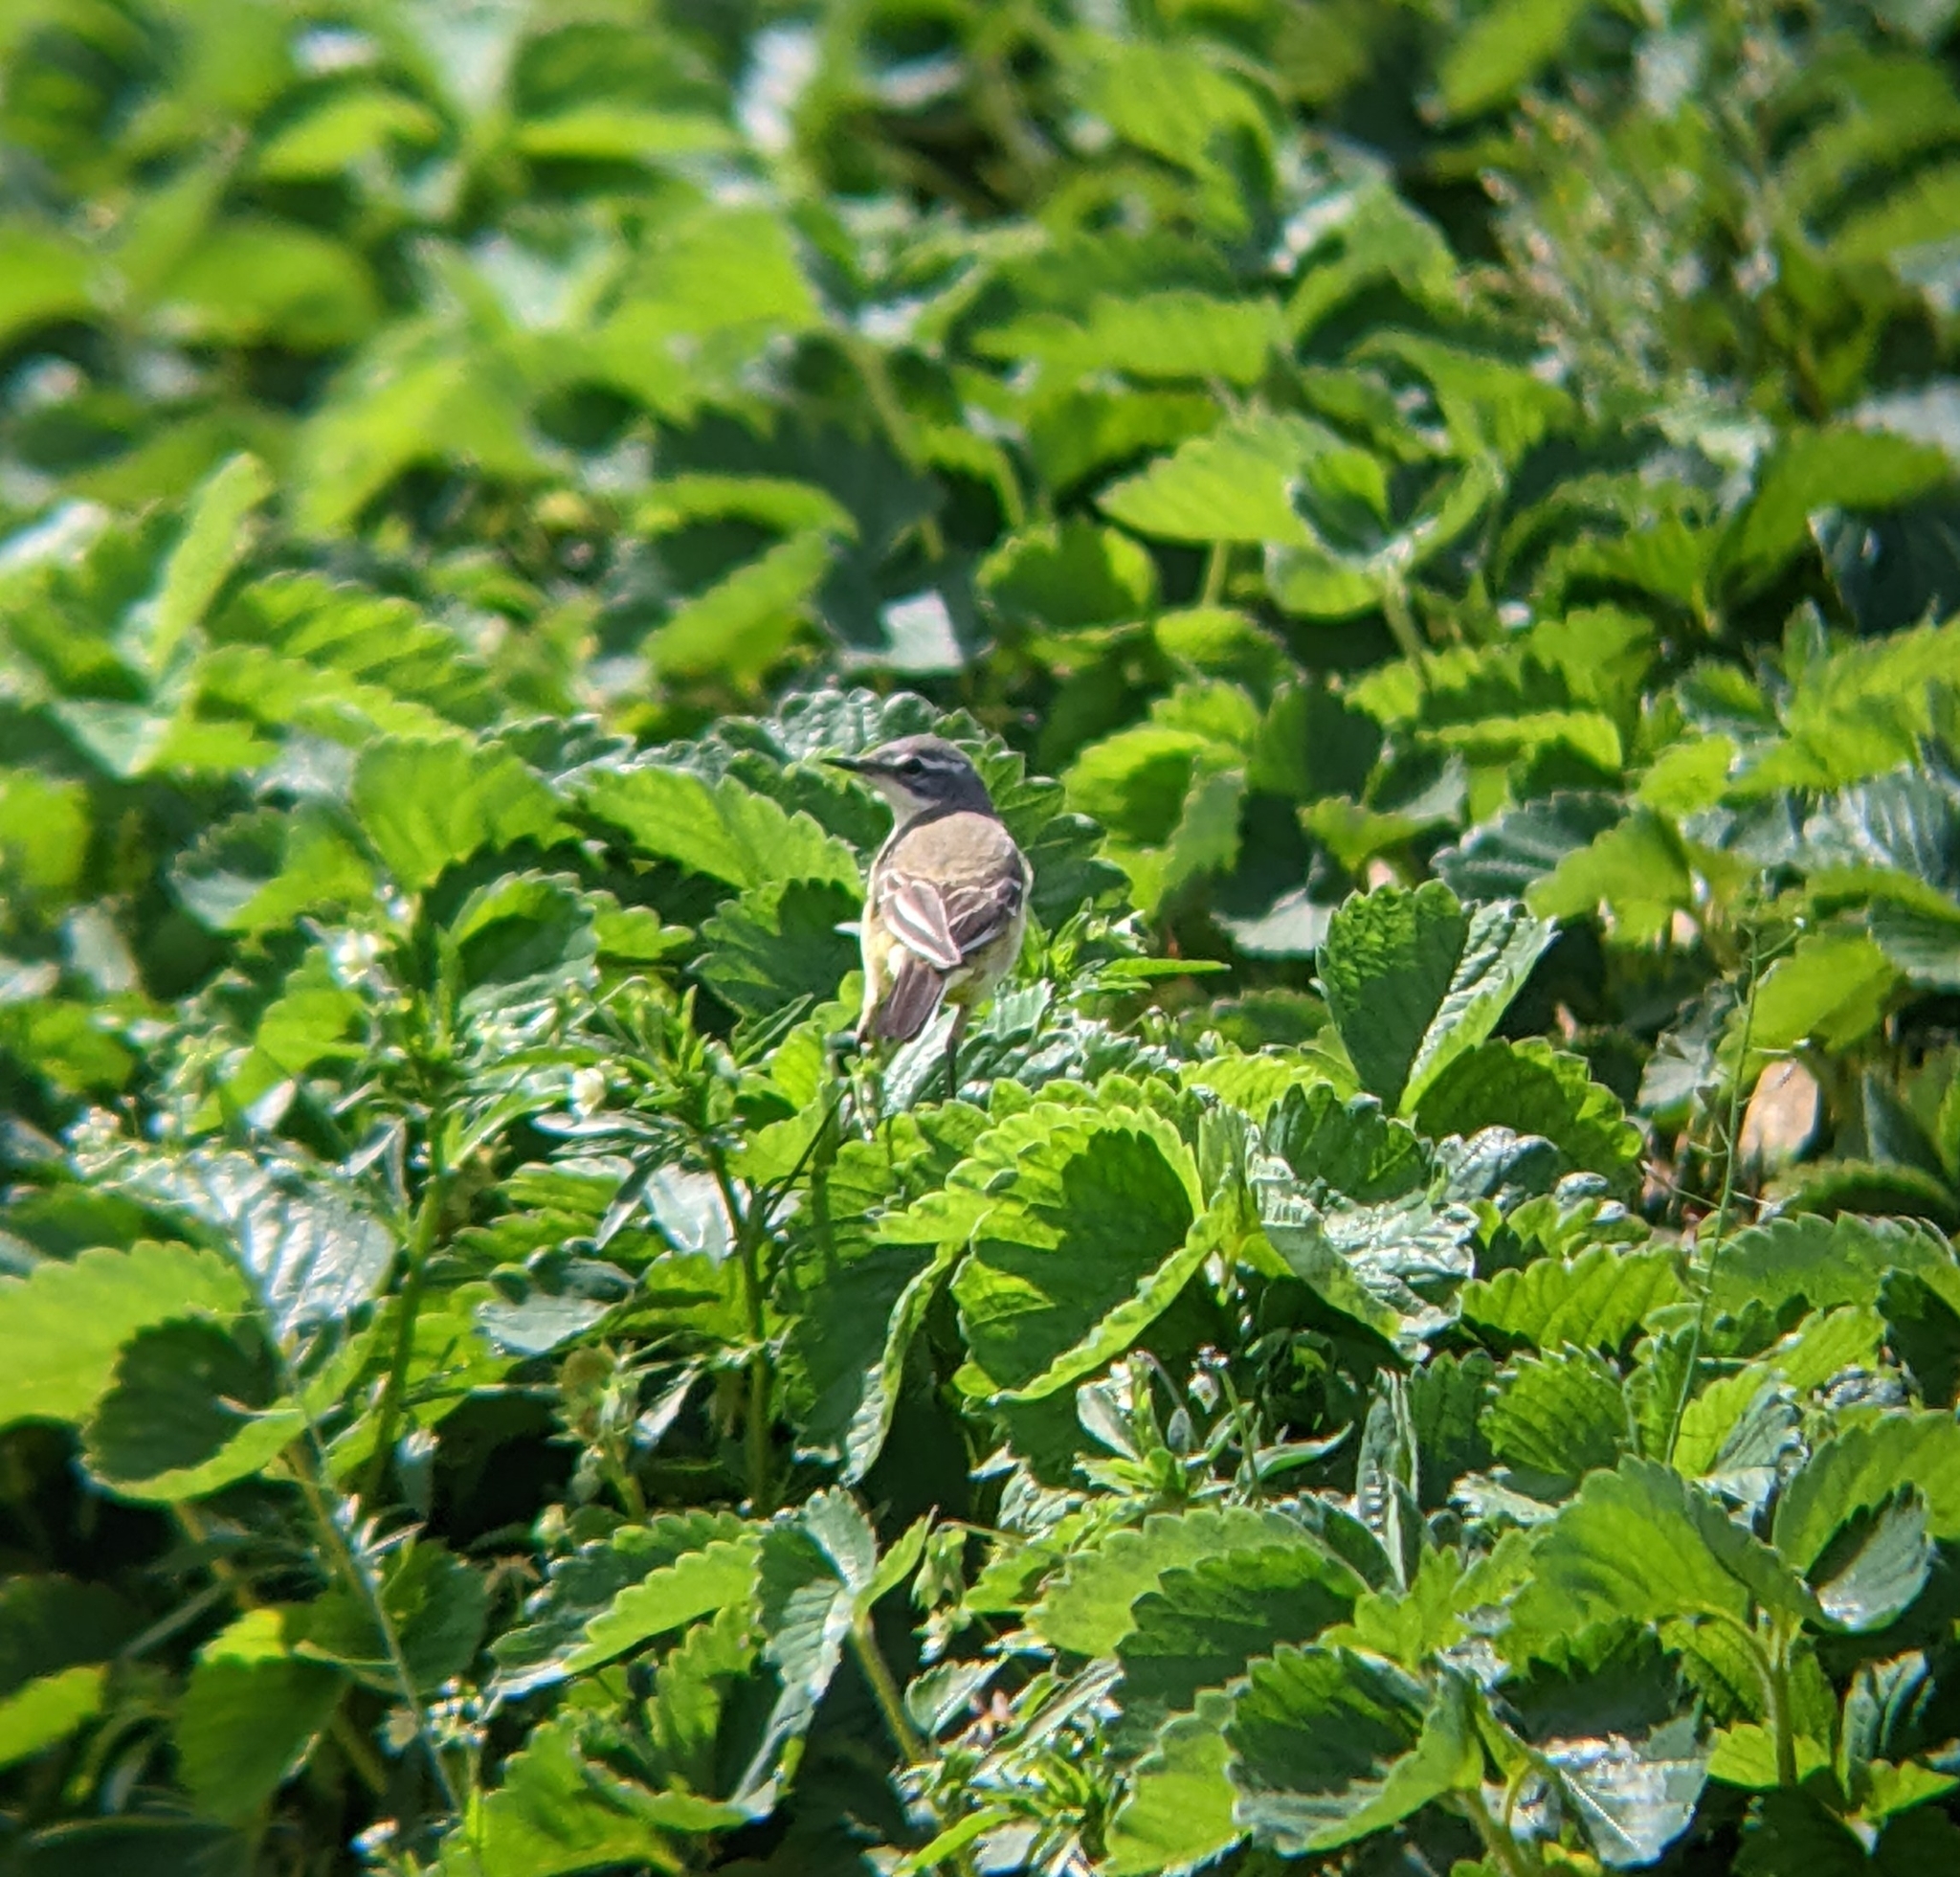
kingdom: Animalia
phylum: Chordata
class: Aves
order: Passeriformes
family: Motacillidae
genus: Motacilla
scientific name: Motacilla flava
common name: Western yellow wagtail
